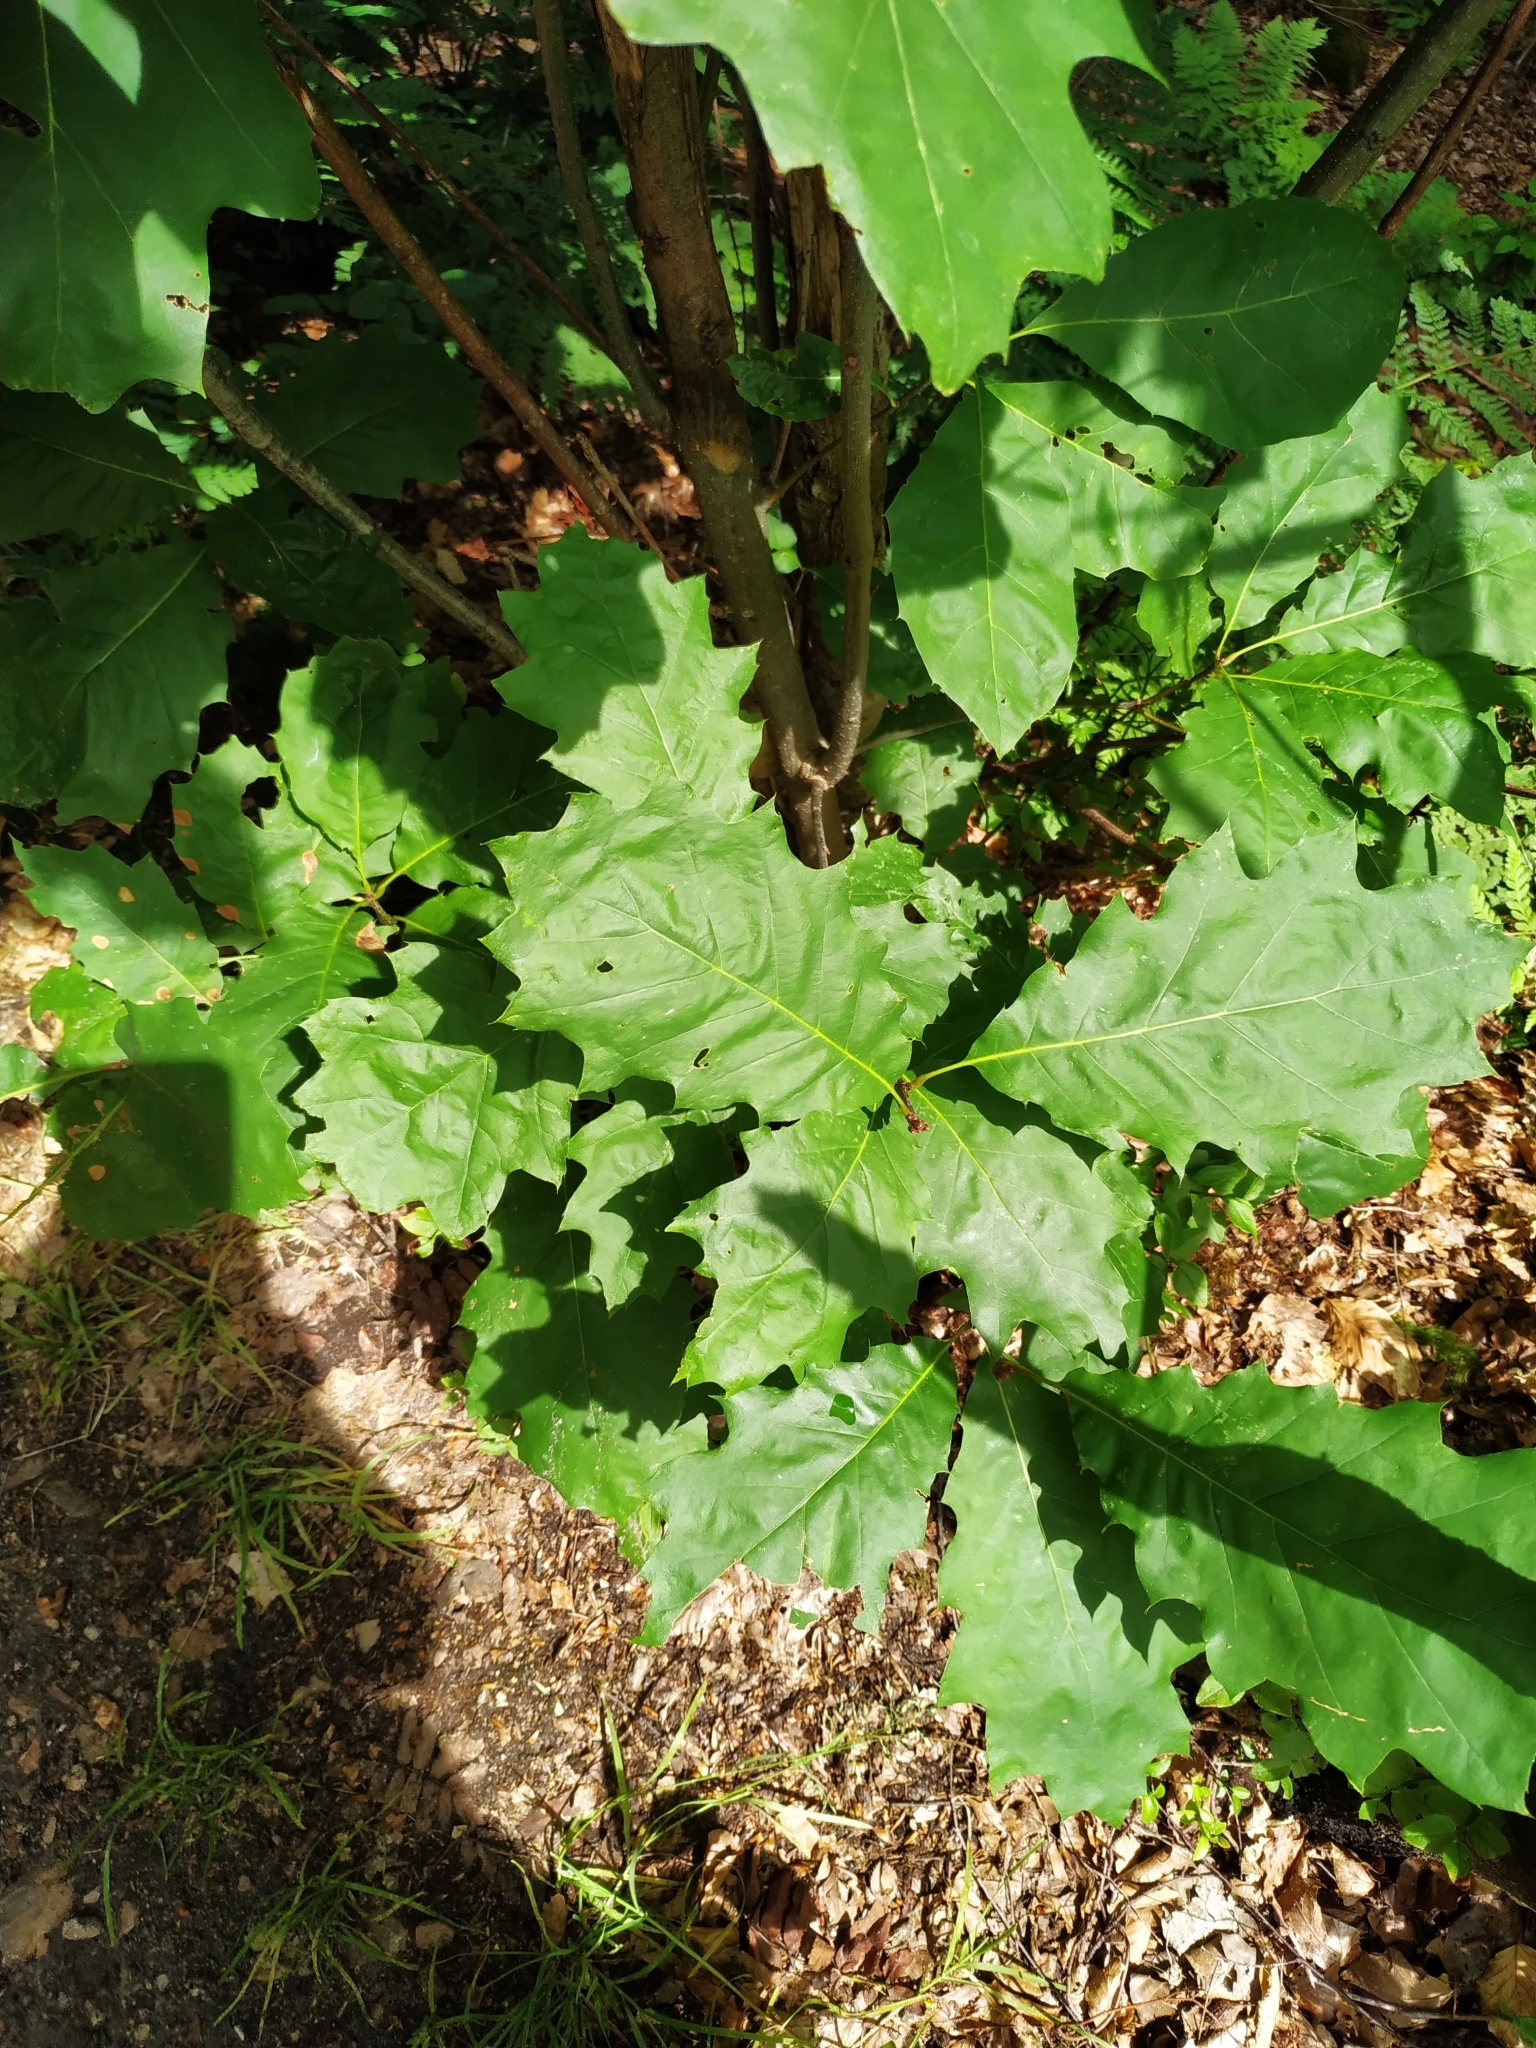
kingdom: Plantae
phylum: Tracheophyta
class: Magnoliopsida
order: Fagales
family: Fagaceae
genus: Quercus
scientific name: Quercus rubra
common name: Red oak
